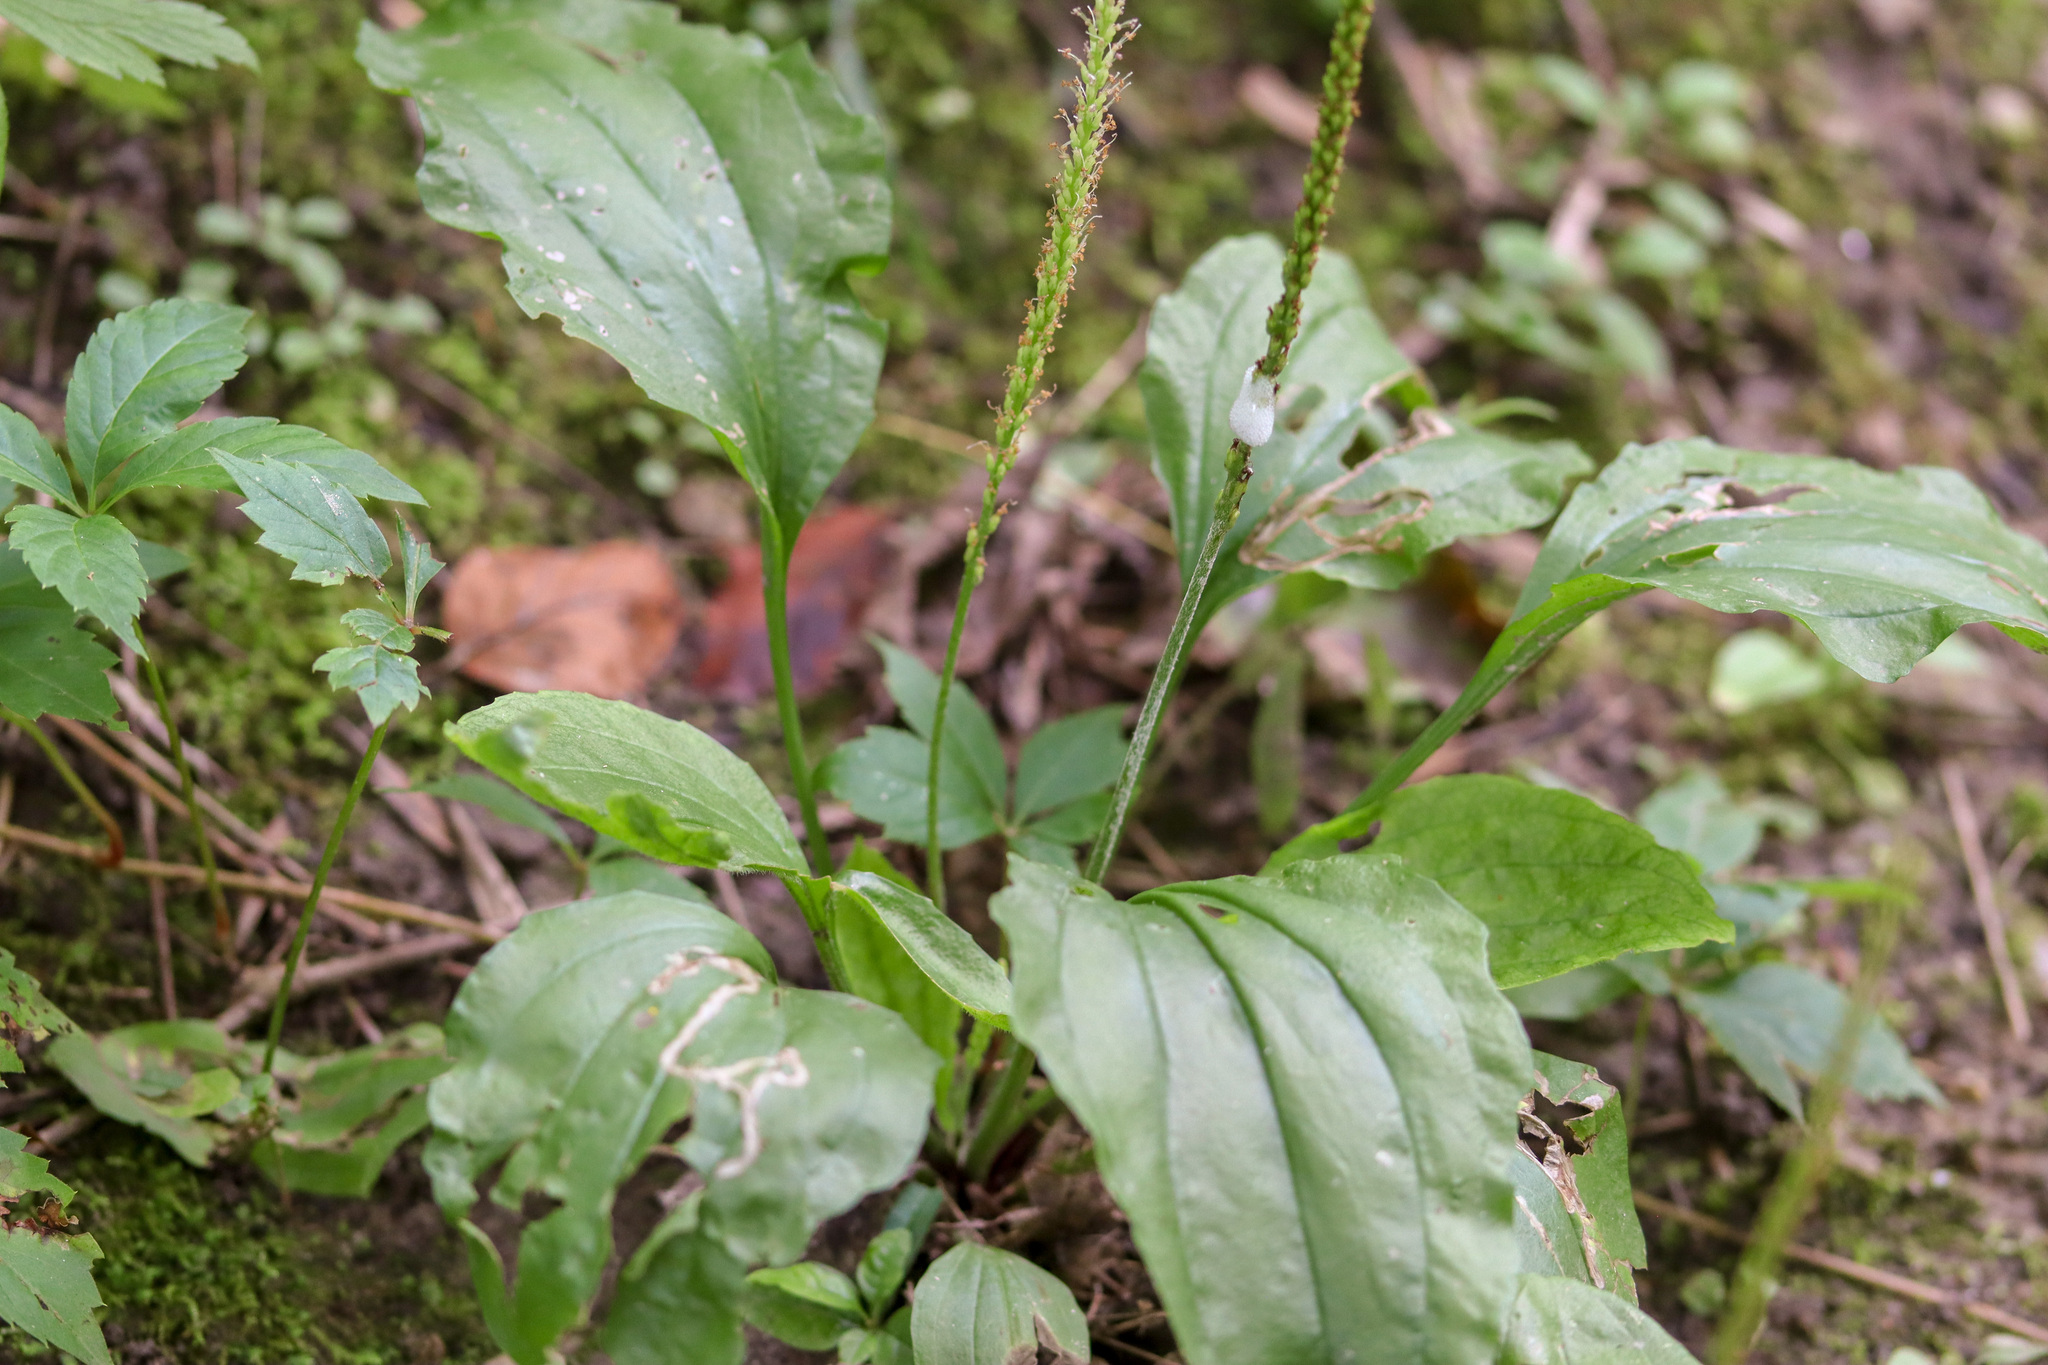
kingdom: Plantae
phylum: Tracheophyta
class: Magnoliopsida
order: Lamiales
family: Plantaginaceae
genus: Plantago
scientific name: Plantago major
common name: Common plantain
